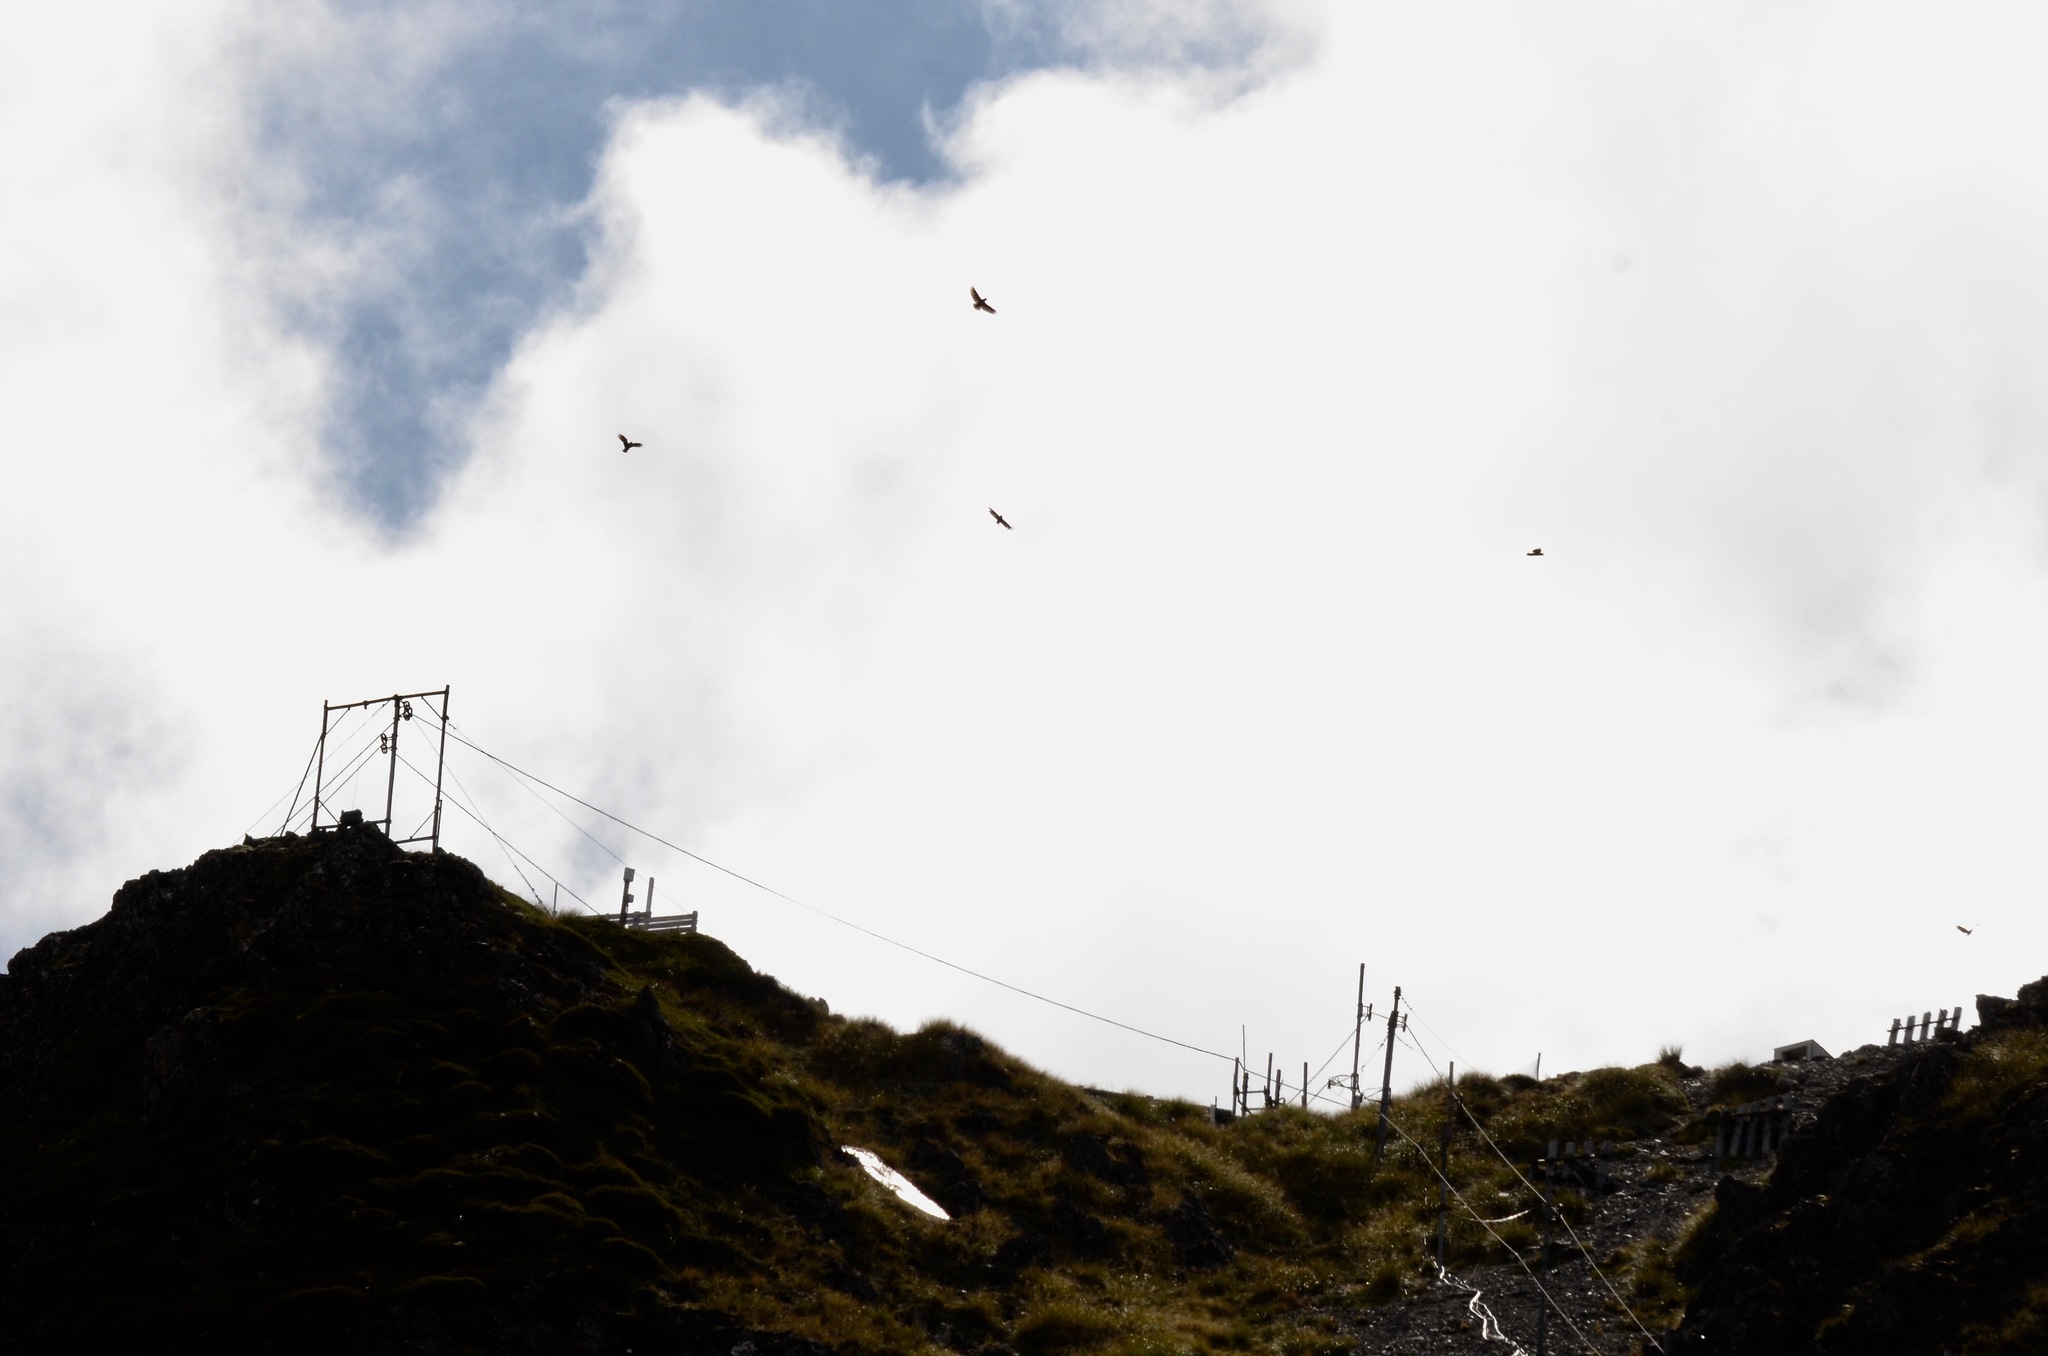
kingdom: Animalia
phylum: Chordata
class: Aves
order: Psittaciformes
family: Psittacidae
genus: Nestor
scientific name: Nestor notabilis
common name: Kea
